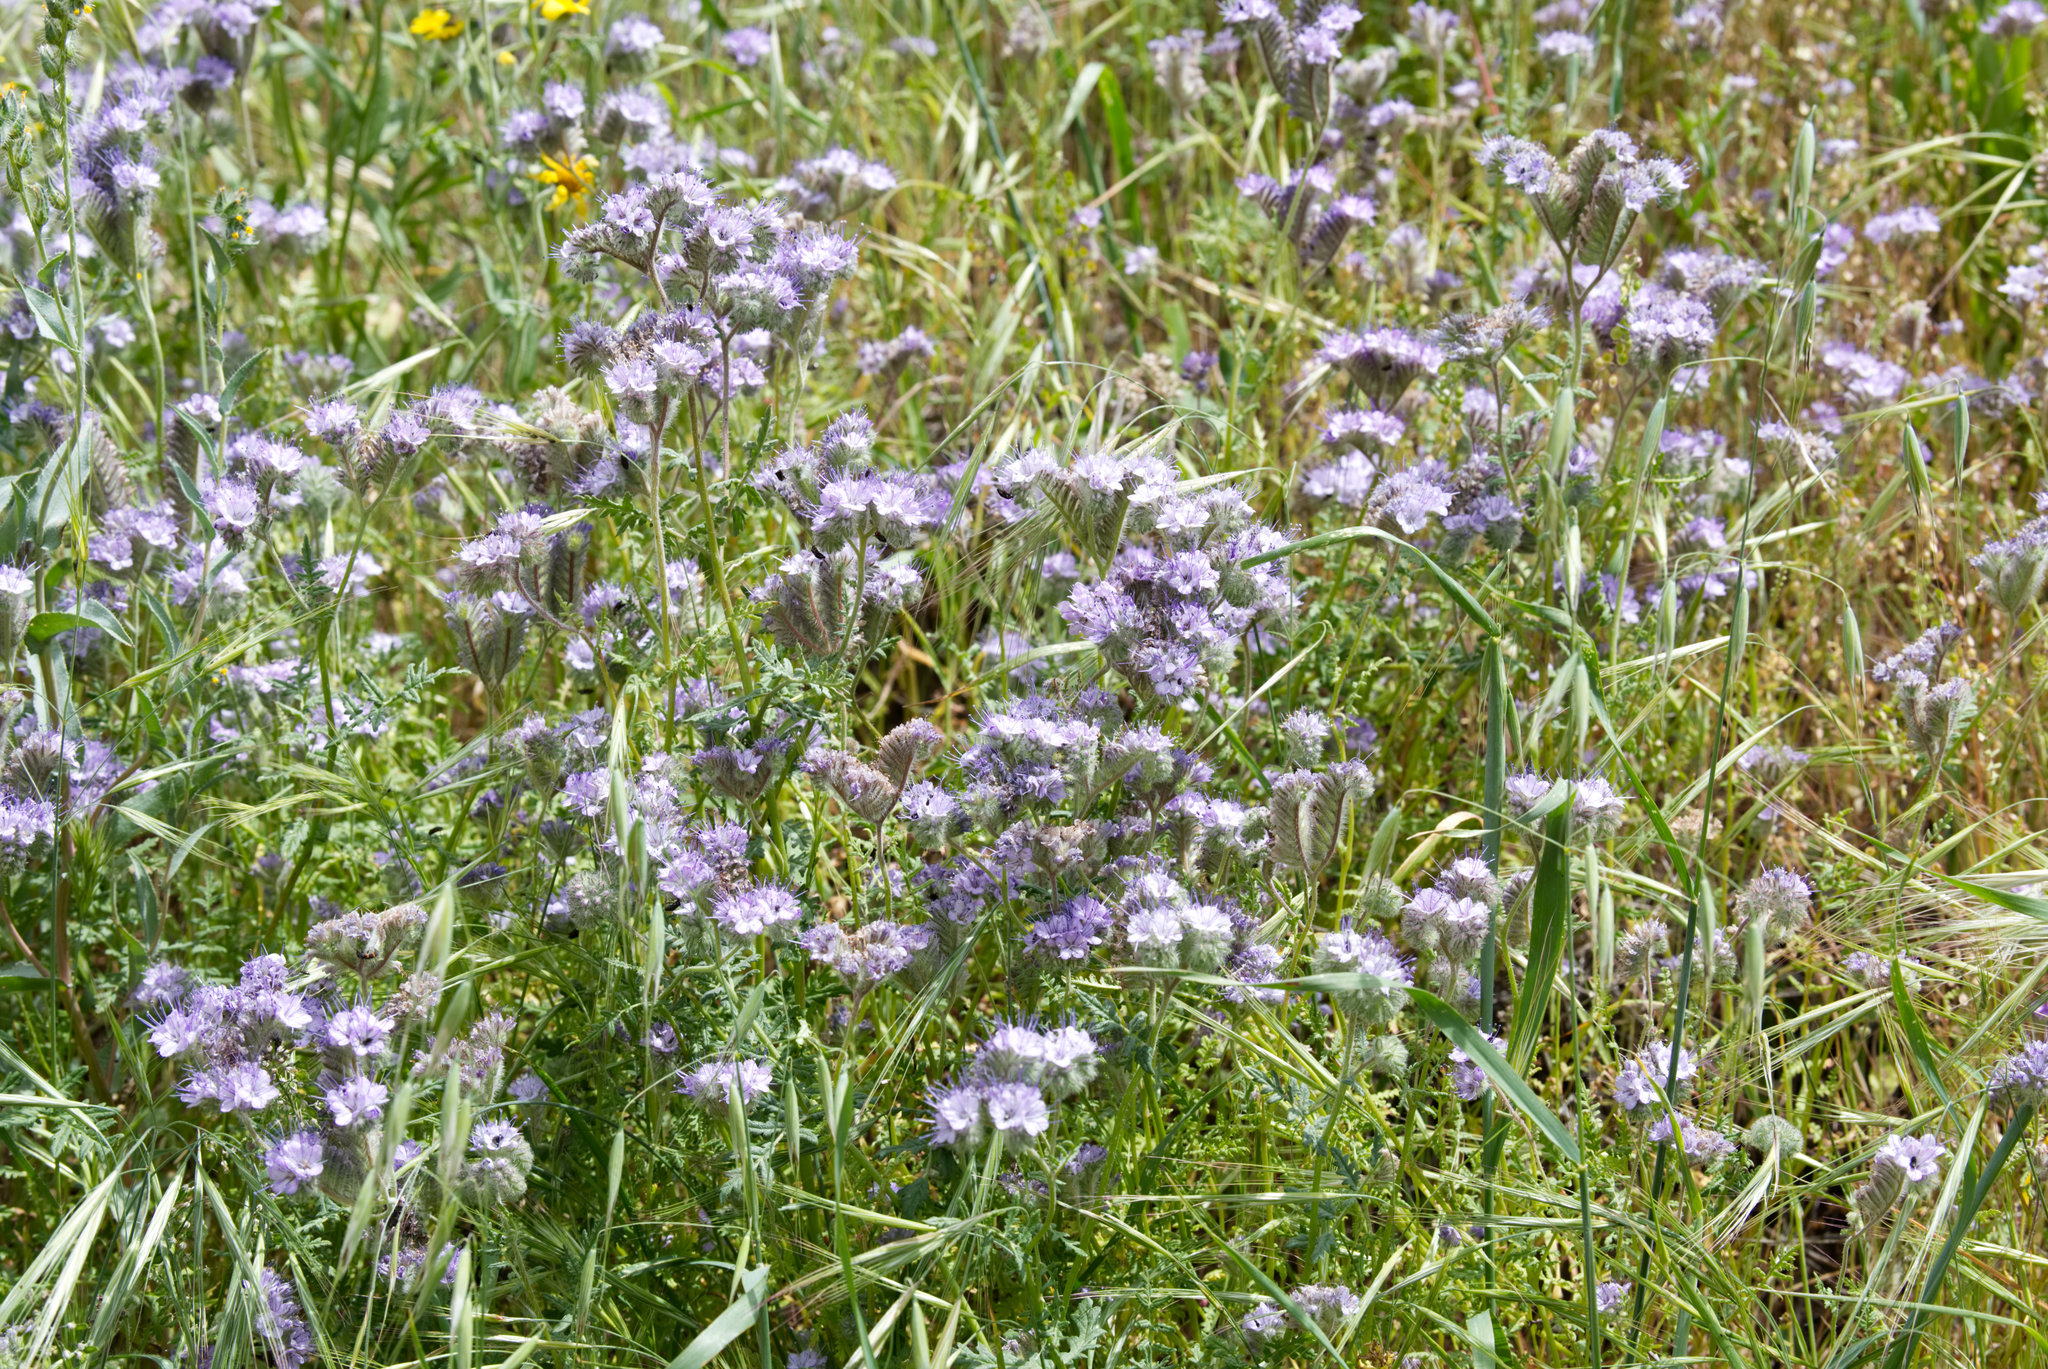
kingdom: Plantae
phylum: Tracheophyta
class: Magnoliopsida
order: Boraginales
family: Hydrophyllaceae
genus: Phacelia
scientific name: Phacelia tanacetifolia
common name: Phacelia
